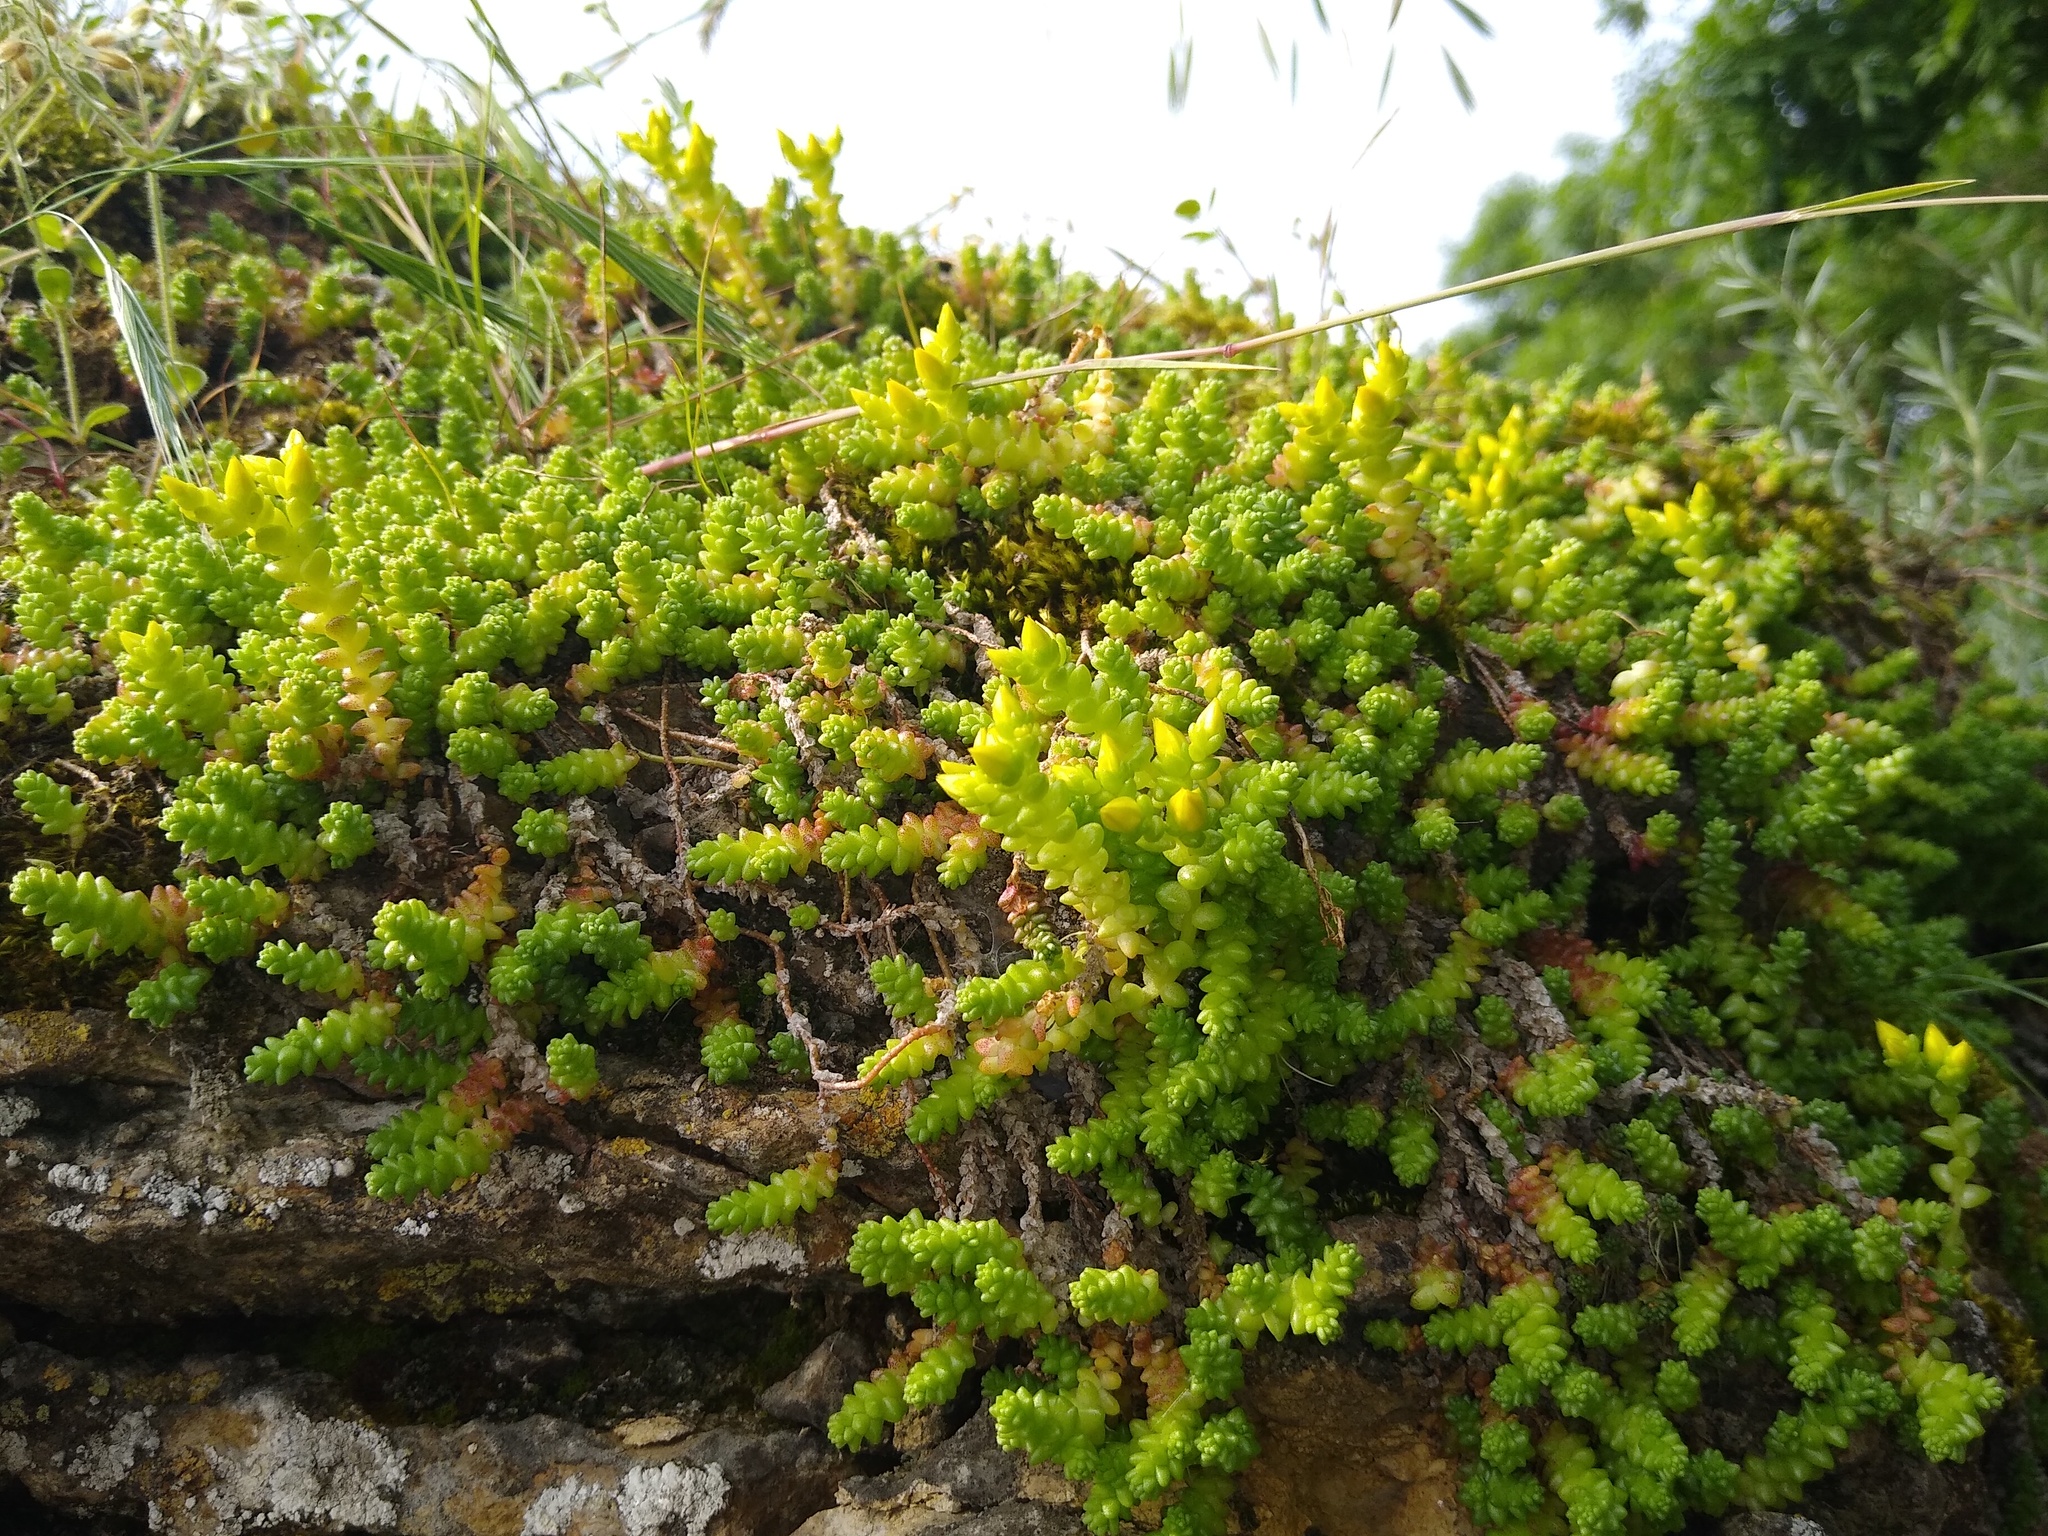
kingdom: Plantae
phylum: Tracheophyta
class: Magnoliopsida
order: Saxifragales
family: Crassulaceae
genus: Sedum
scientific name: Sedum acre
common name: Biting stonecrop
